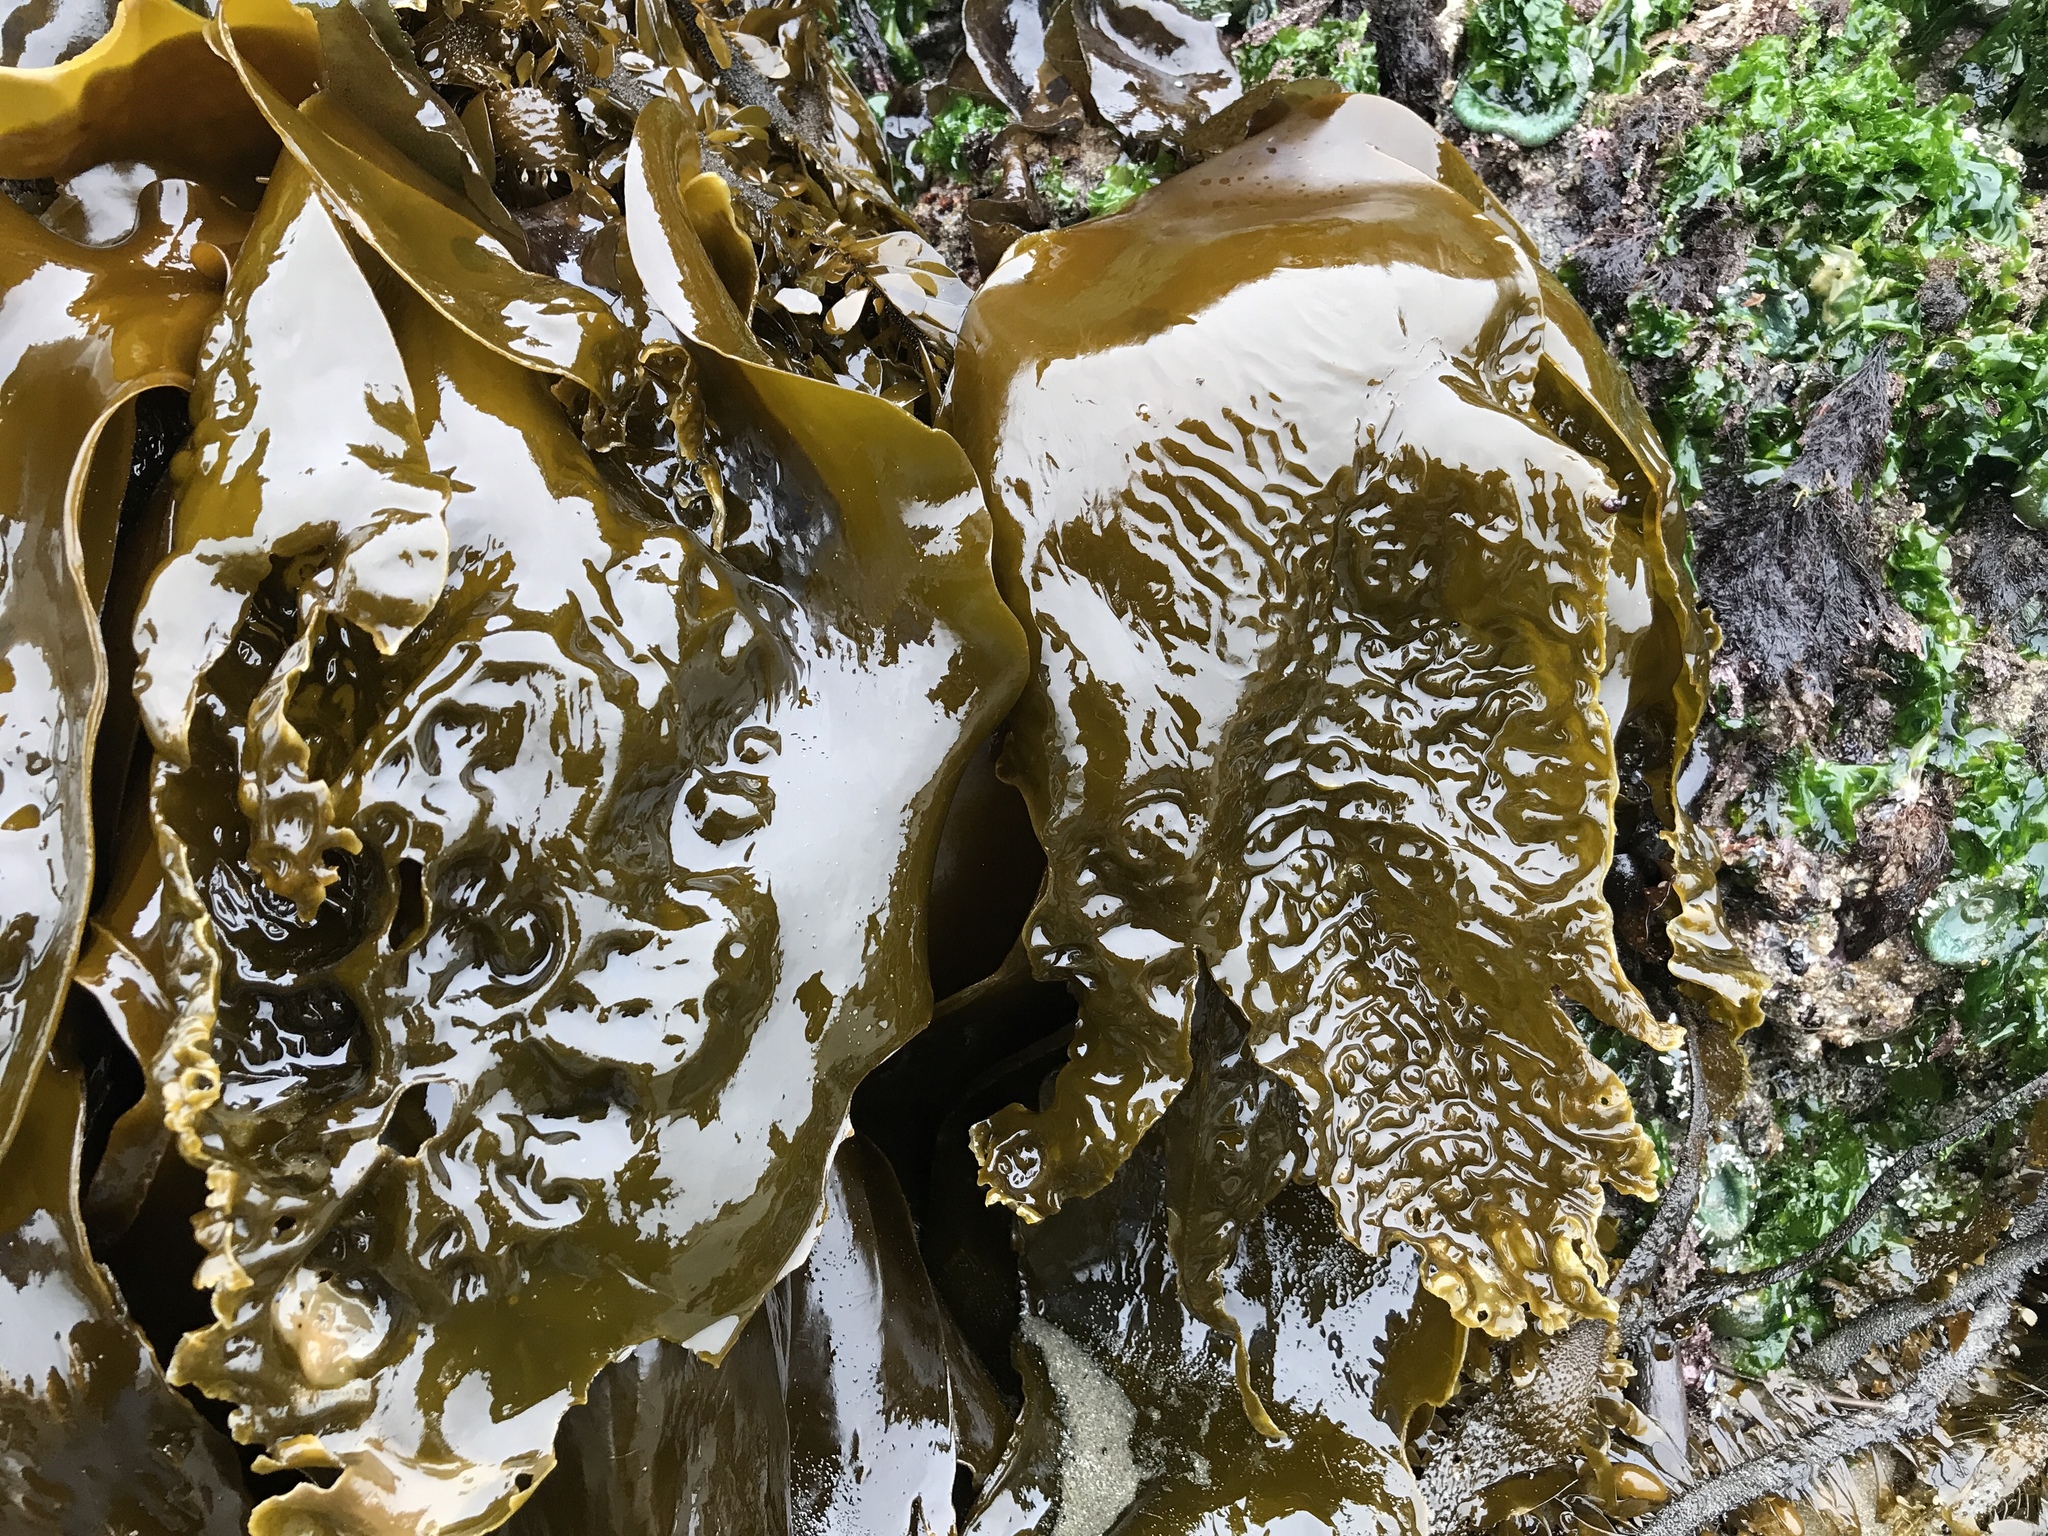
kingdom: Chromista
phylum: Ochrophyta
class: Phaeophyceae
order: Laminariales
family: Laminariaceae
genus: Hedophyllum
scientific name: Hedophyllum sessile
